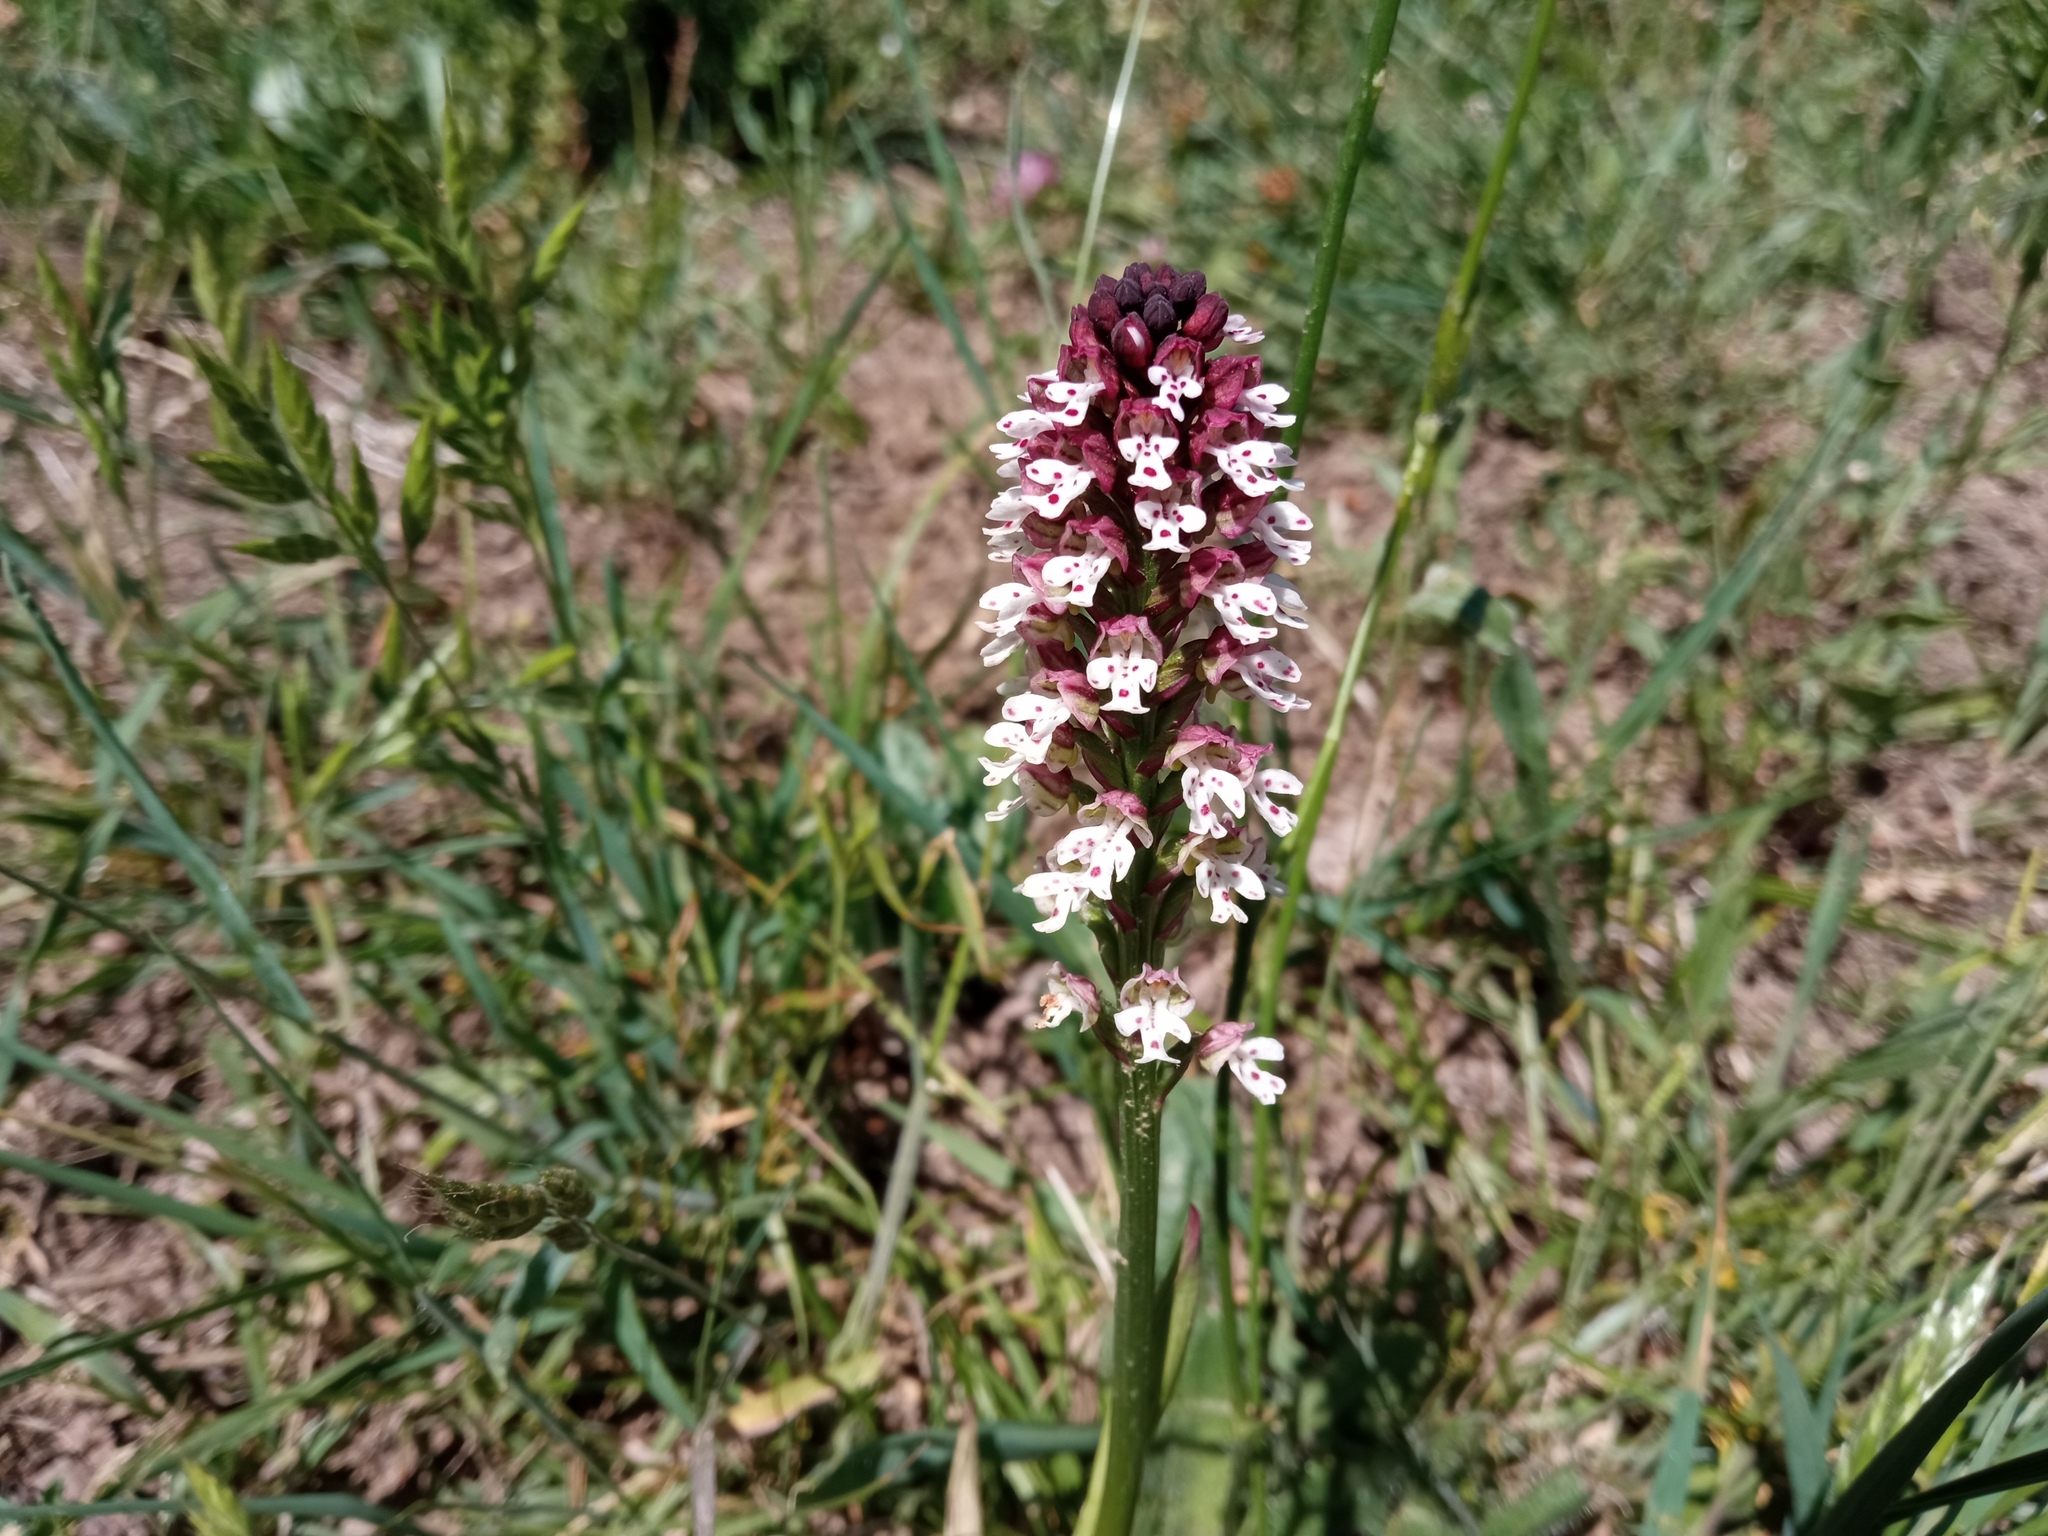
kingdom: Plantae
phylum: Tracheophyta
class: Liliopsida
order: Asparagales
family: Orchidaceae
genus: Neotinea
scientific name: Neotinea ustulata
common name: Burnt orchid
